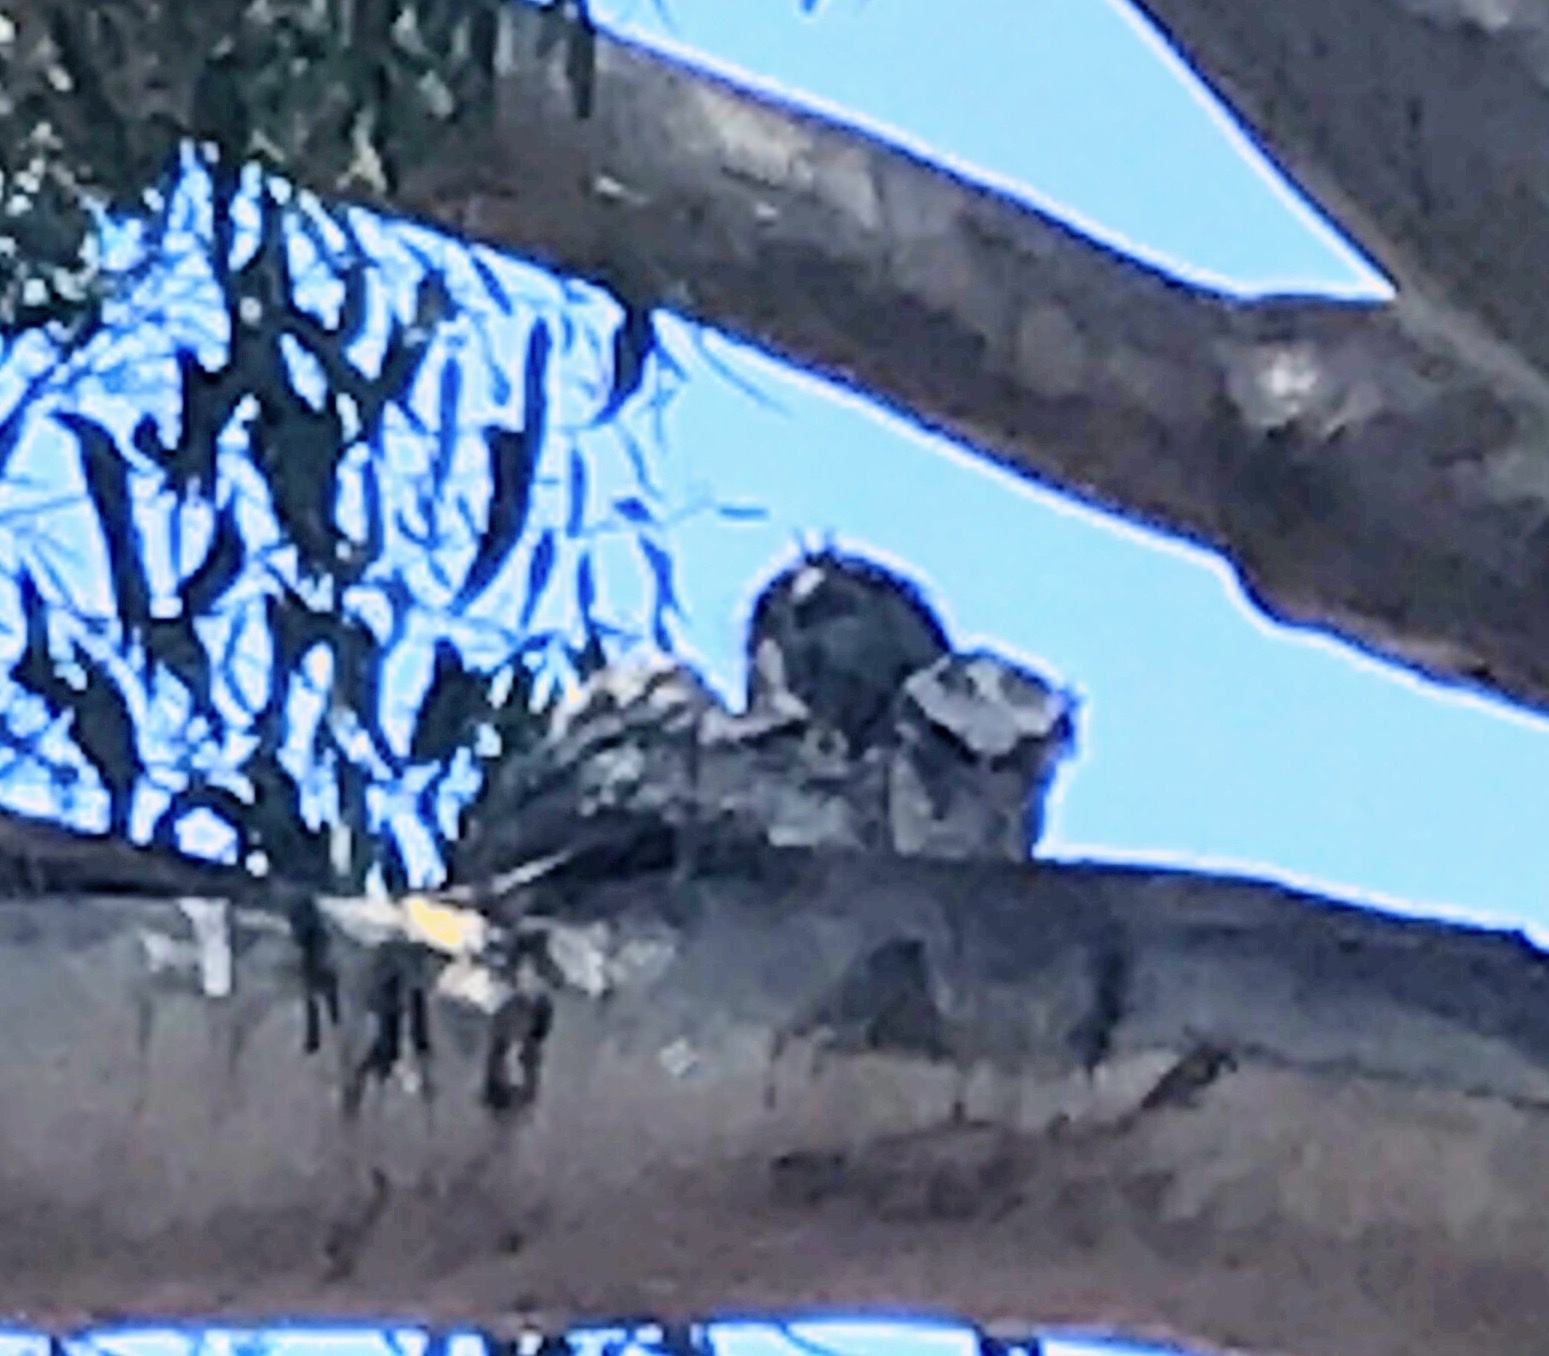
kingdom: Animalia
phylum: Chordata
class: Aves
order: Caprimulgiformes
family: Podargidae
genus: Podargus
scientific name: Podargus strigoides
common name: Tawny frogmouth
